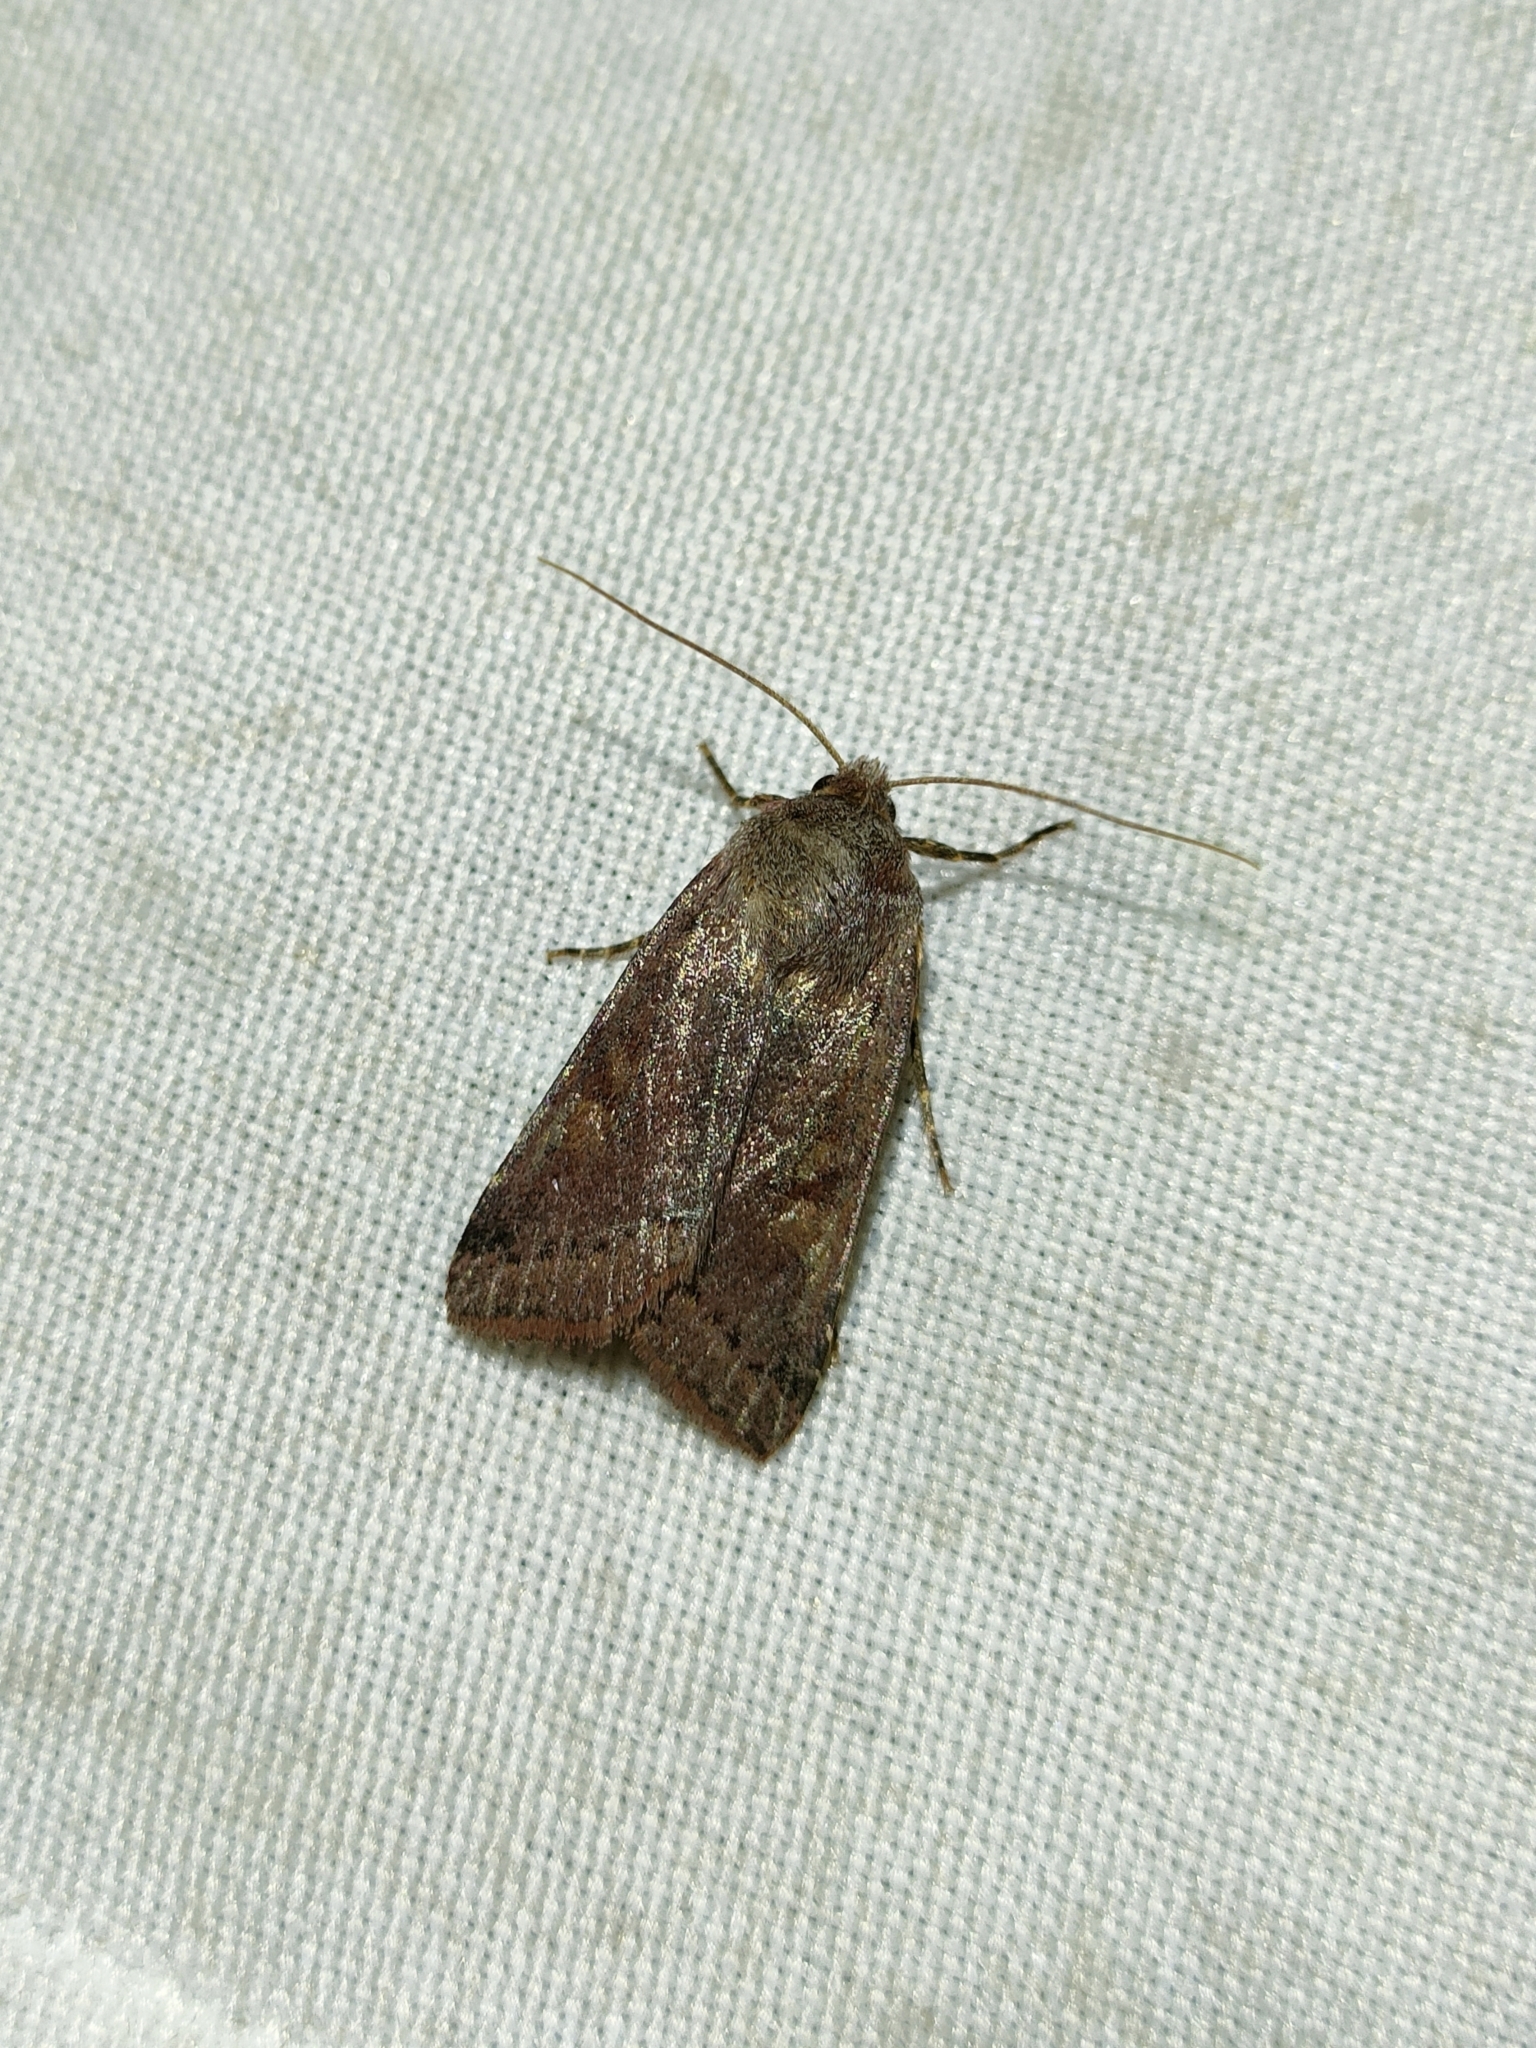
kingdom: Animalia
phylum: Arthropoda
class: Insecta
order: Lepidoptera
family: Noctuidae
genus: Agrochola
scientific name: Agrochola haematidea
